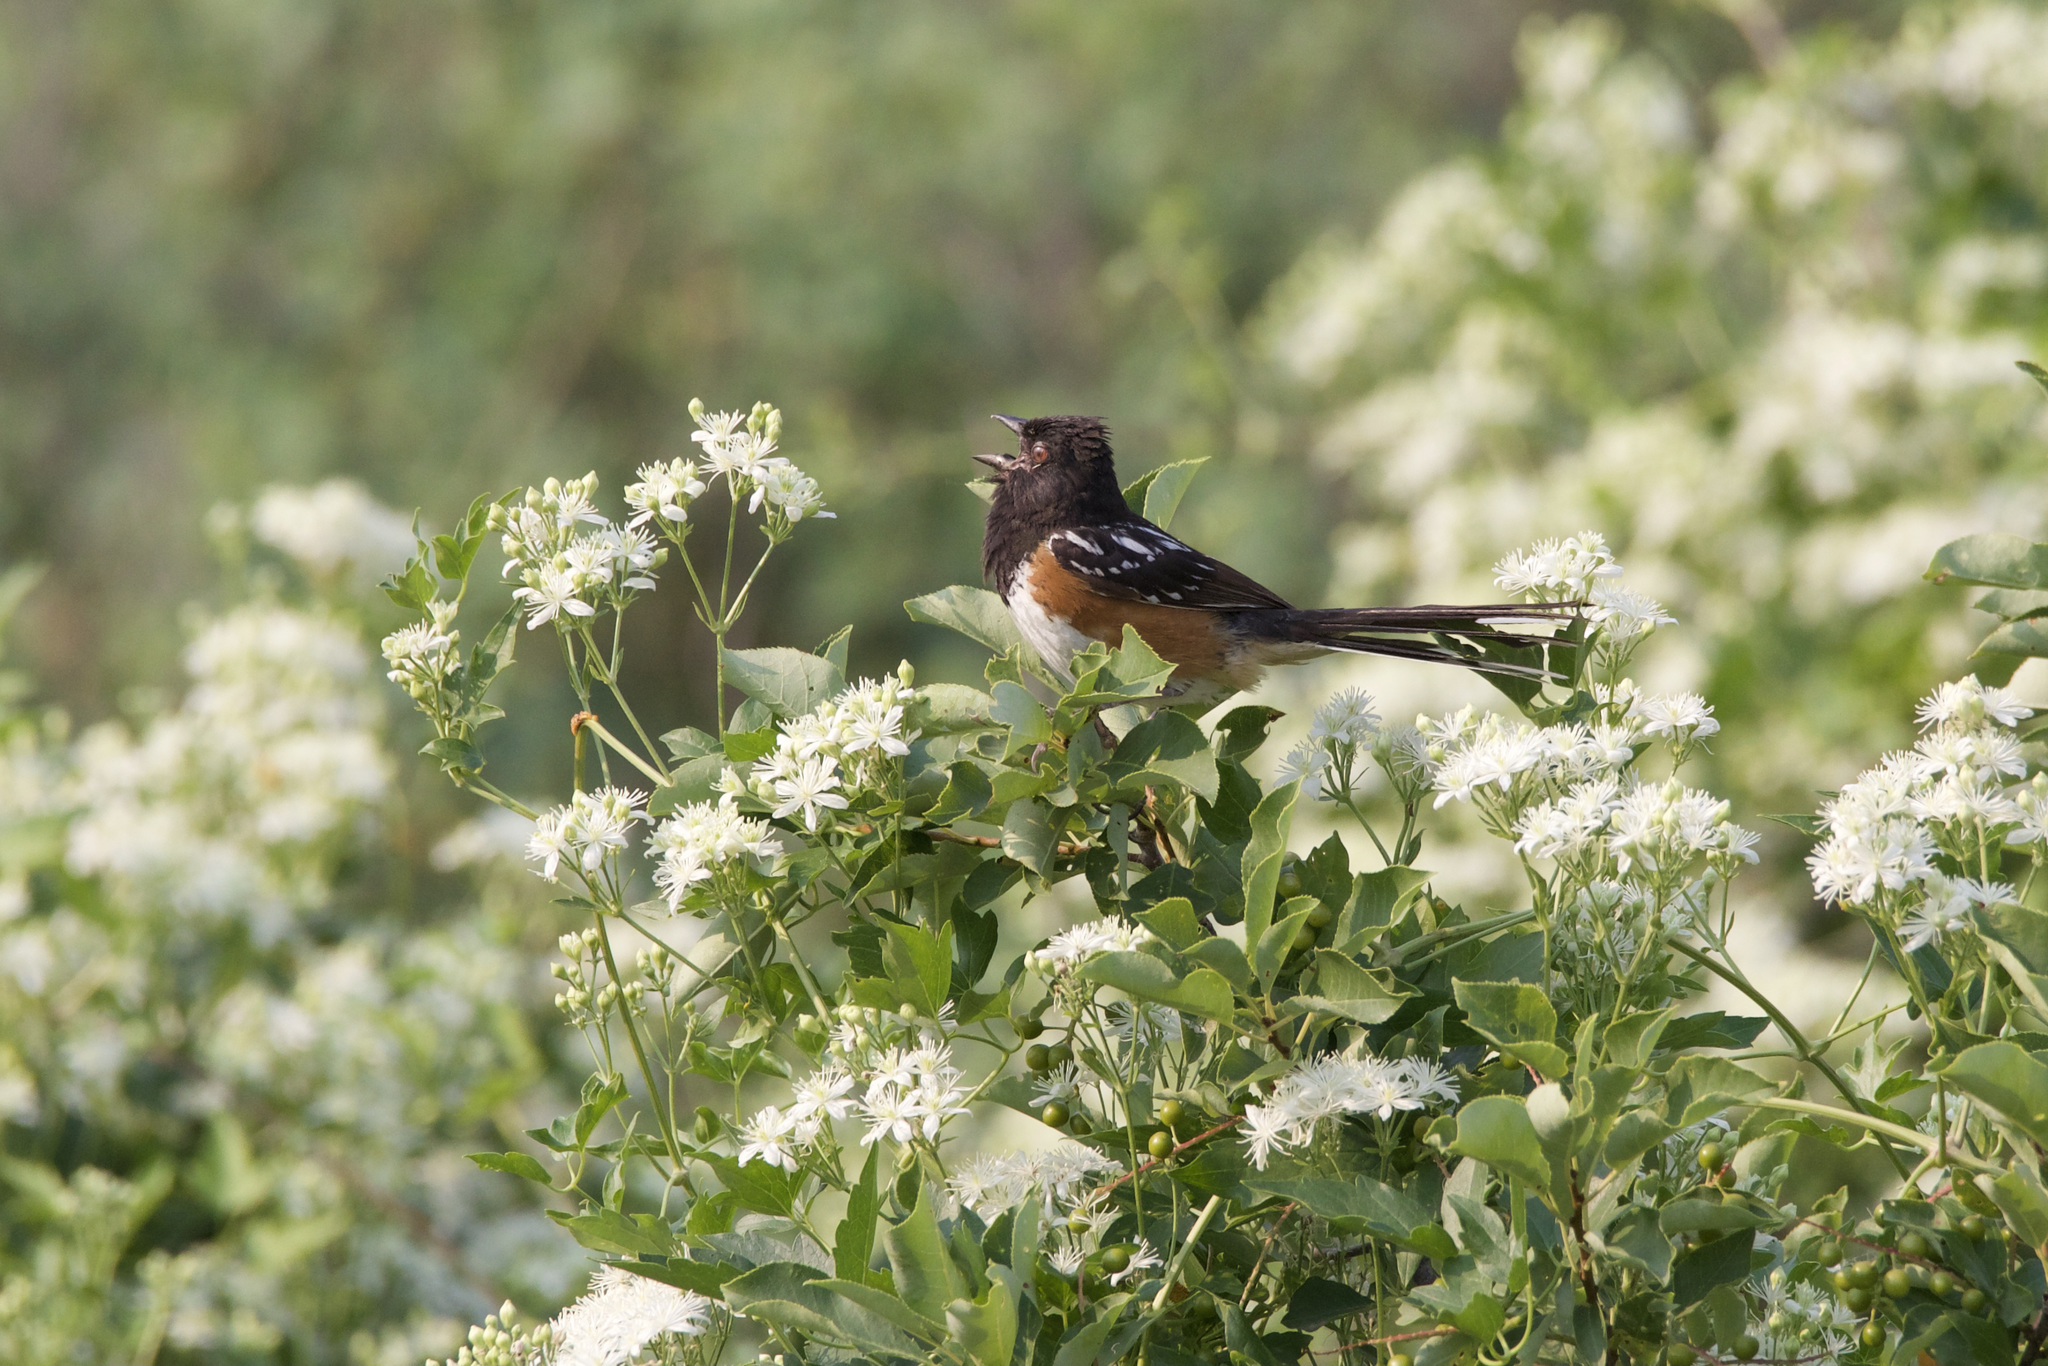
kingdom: Animalia
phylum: Chordata
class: Aves
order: Passeriformes
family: Passerellidae
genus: Pipilo
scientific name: Pipilo maculatus
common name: Spotted towhee
